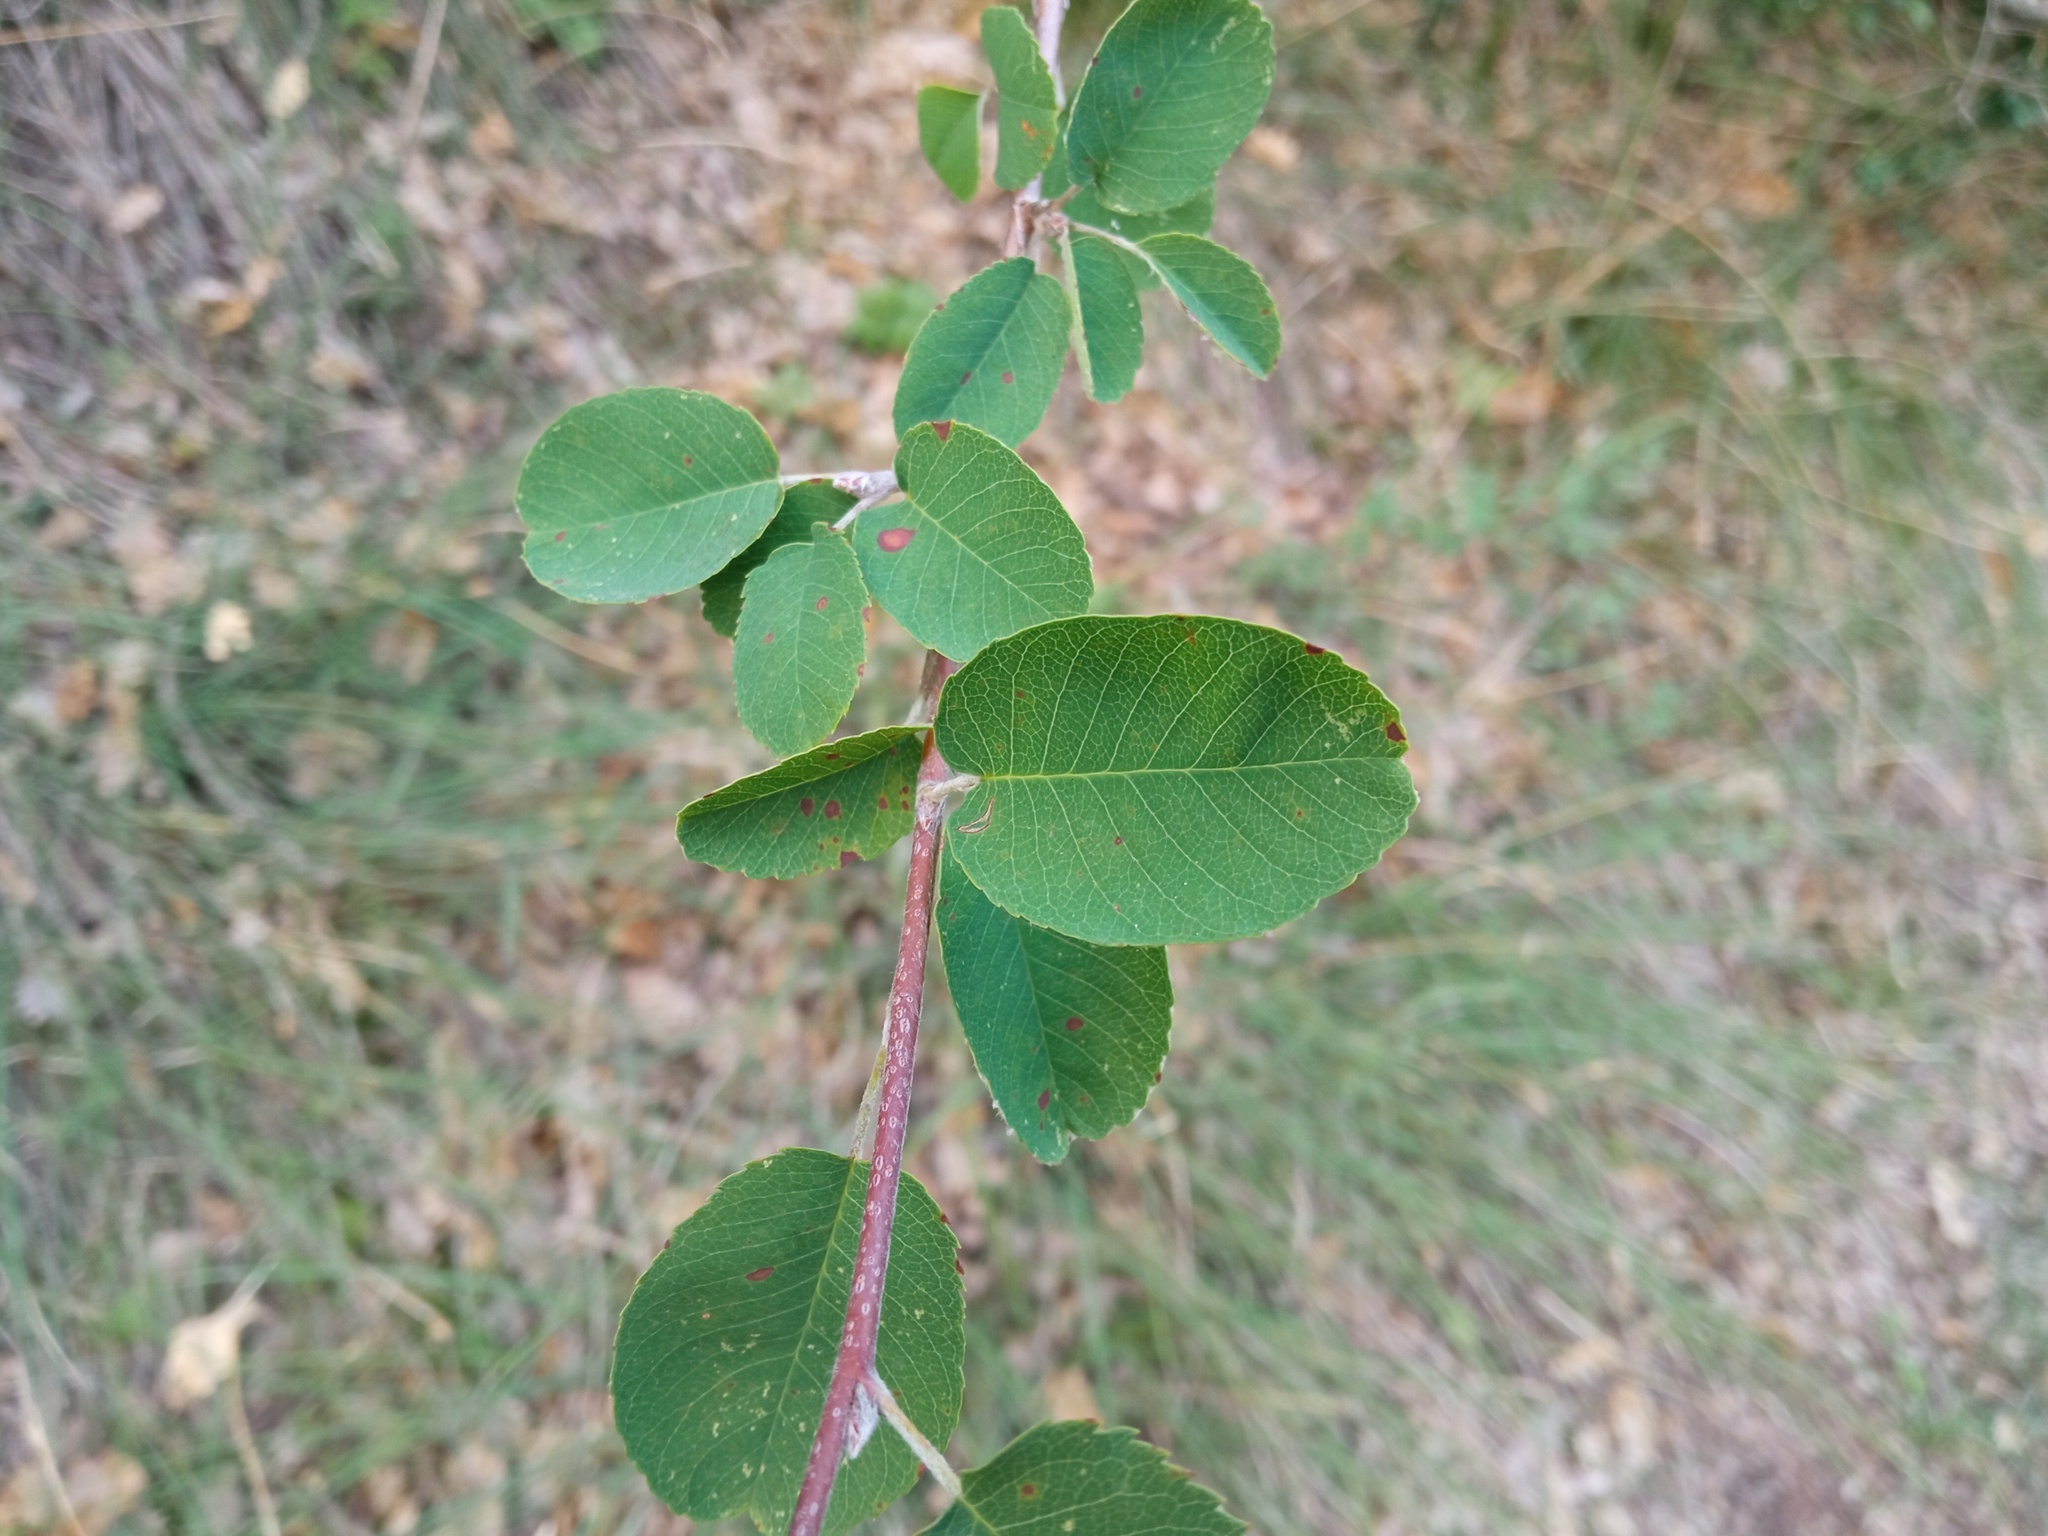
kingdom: Plantae
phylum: Tracheophyta
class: Magnoliopsida
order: Rosales
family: Rosaceae
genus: Amelanchier
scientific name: Amelanchier ovalis
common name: Serviceberry
